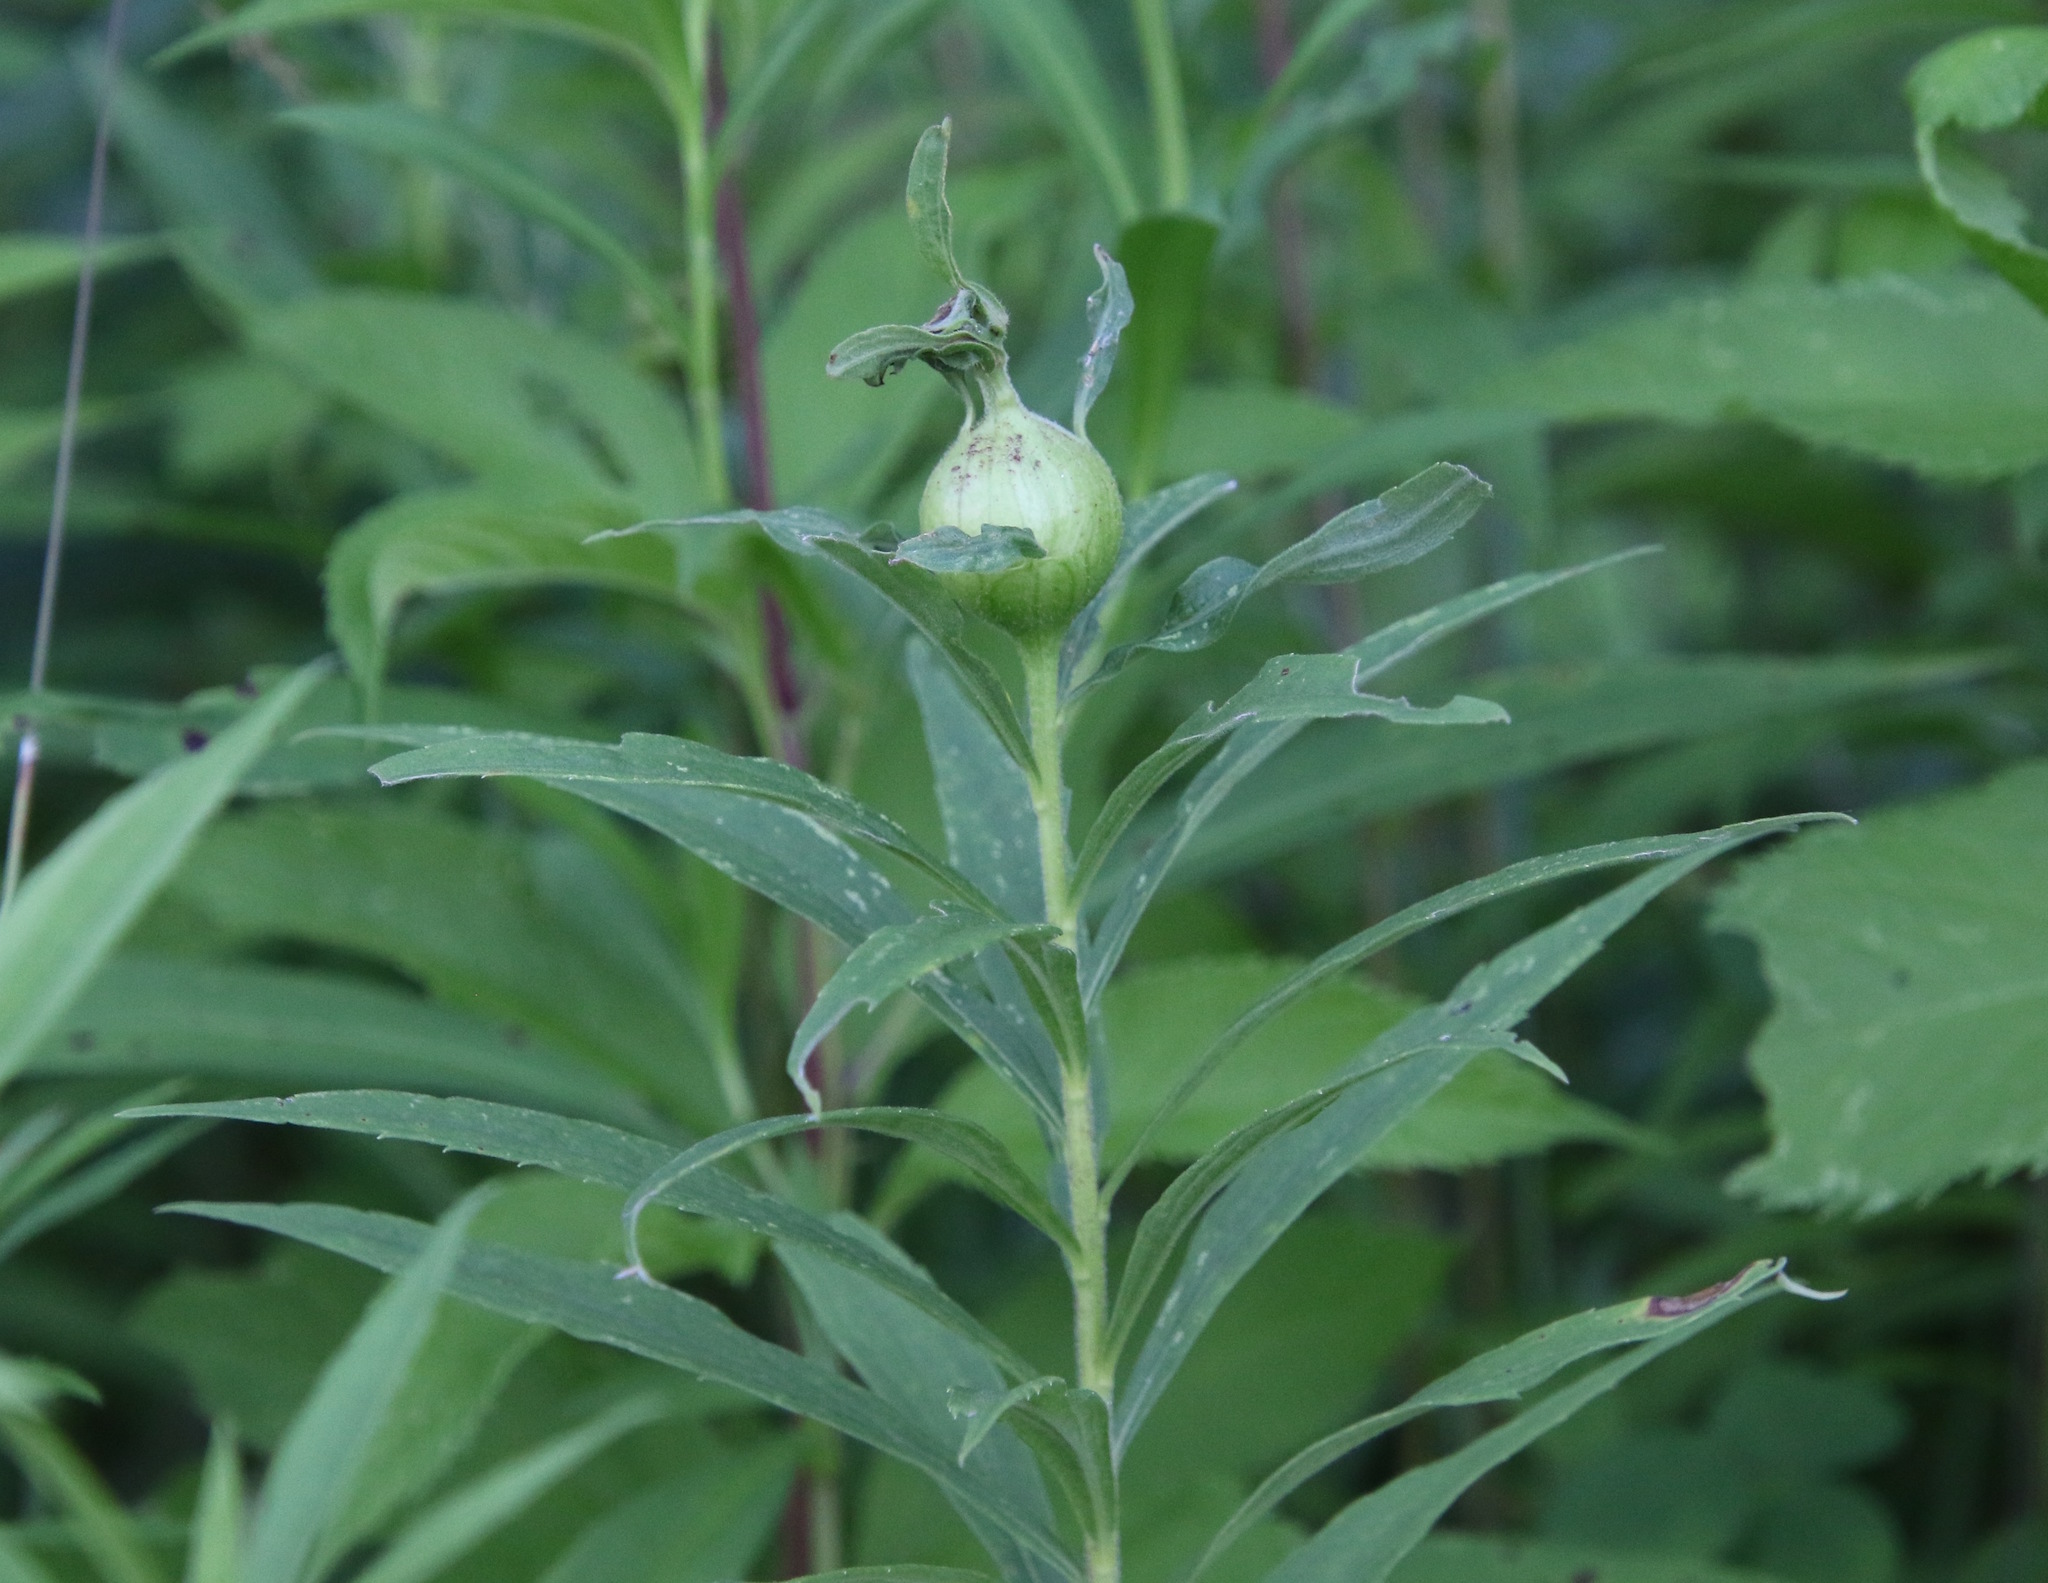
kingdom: Animalia
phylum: Arthropoda
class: Insecta
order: Diptera
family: Tephritidae
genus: Eurosta
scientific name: Eurosta solidaginis
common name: Goldenrod gall fly
